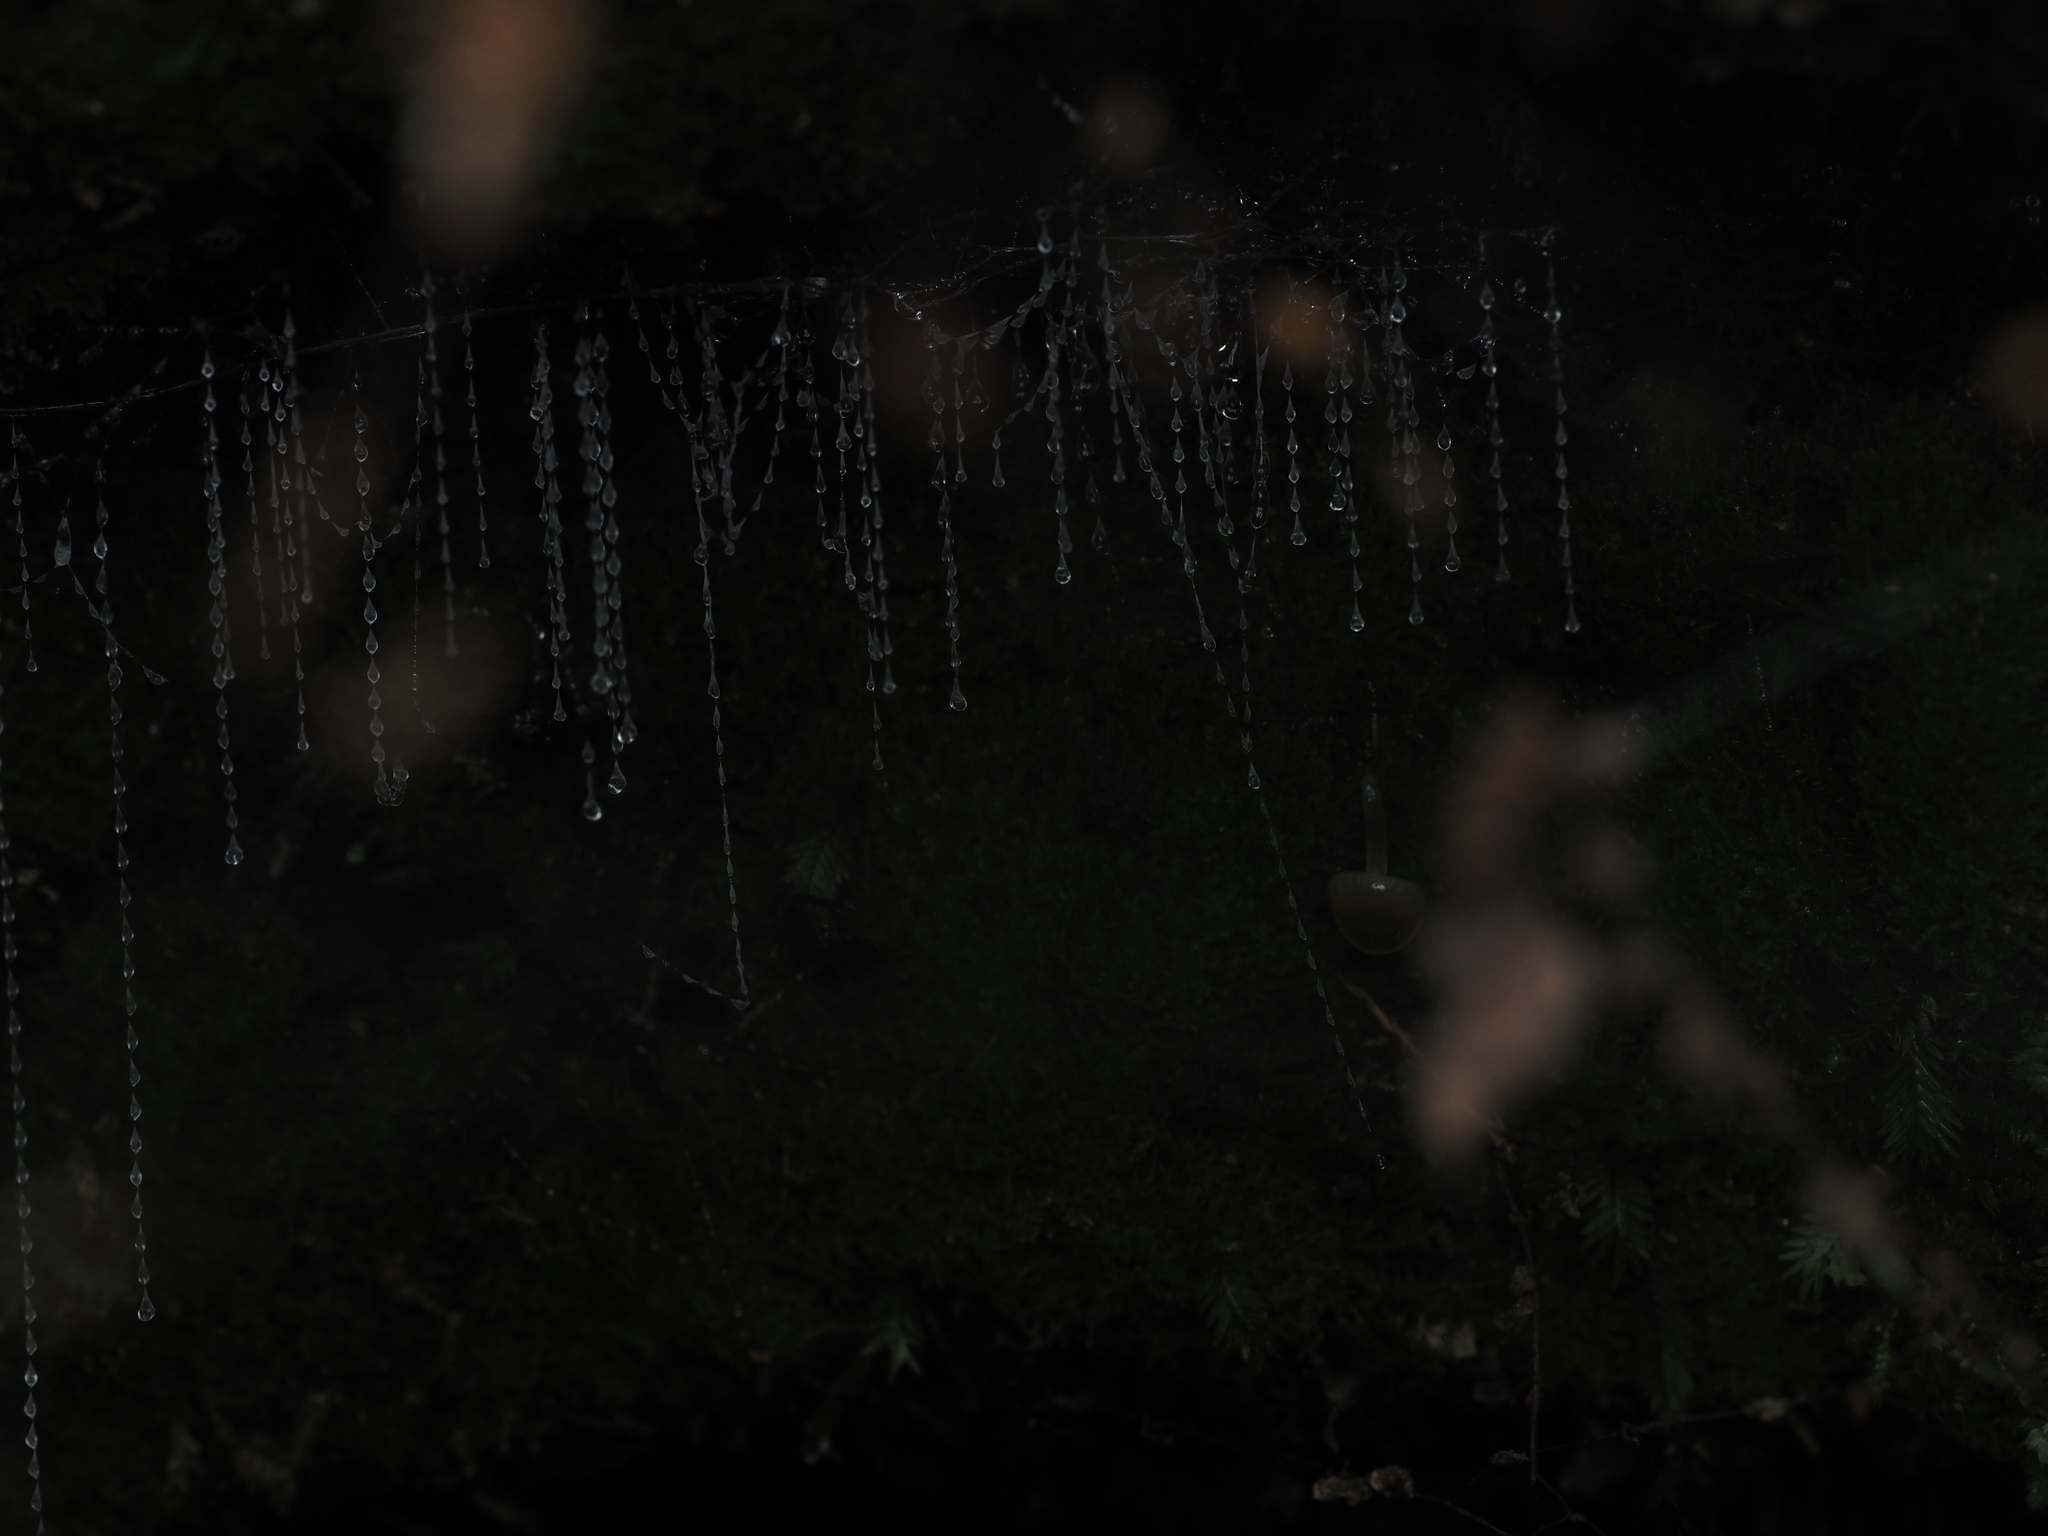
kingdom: Animalia
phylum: Arthropoda
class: Insecta
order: Diptera
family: Keroplatidae
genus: Arachnocampa
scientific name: Arachnocampa luminosa
